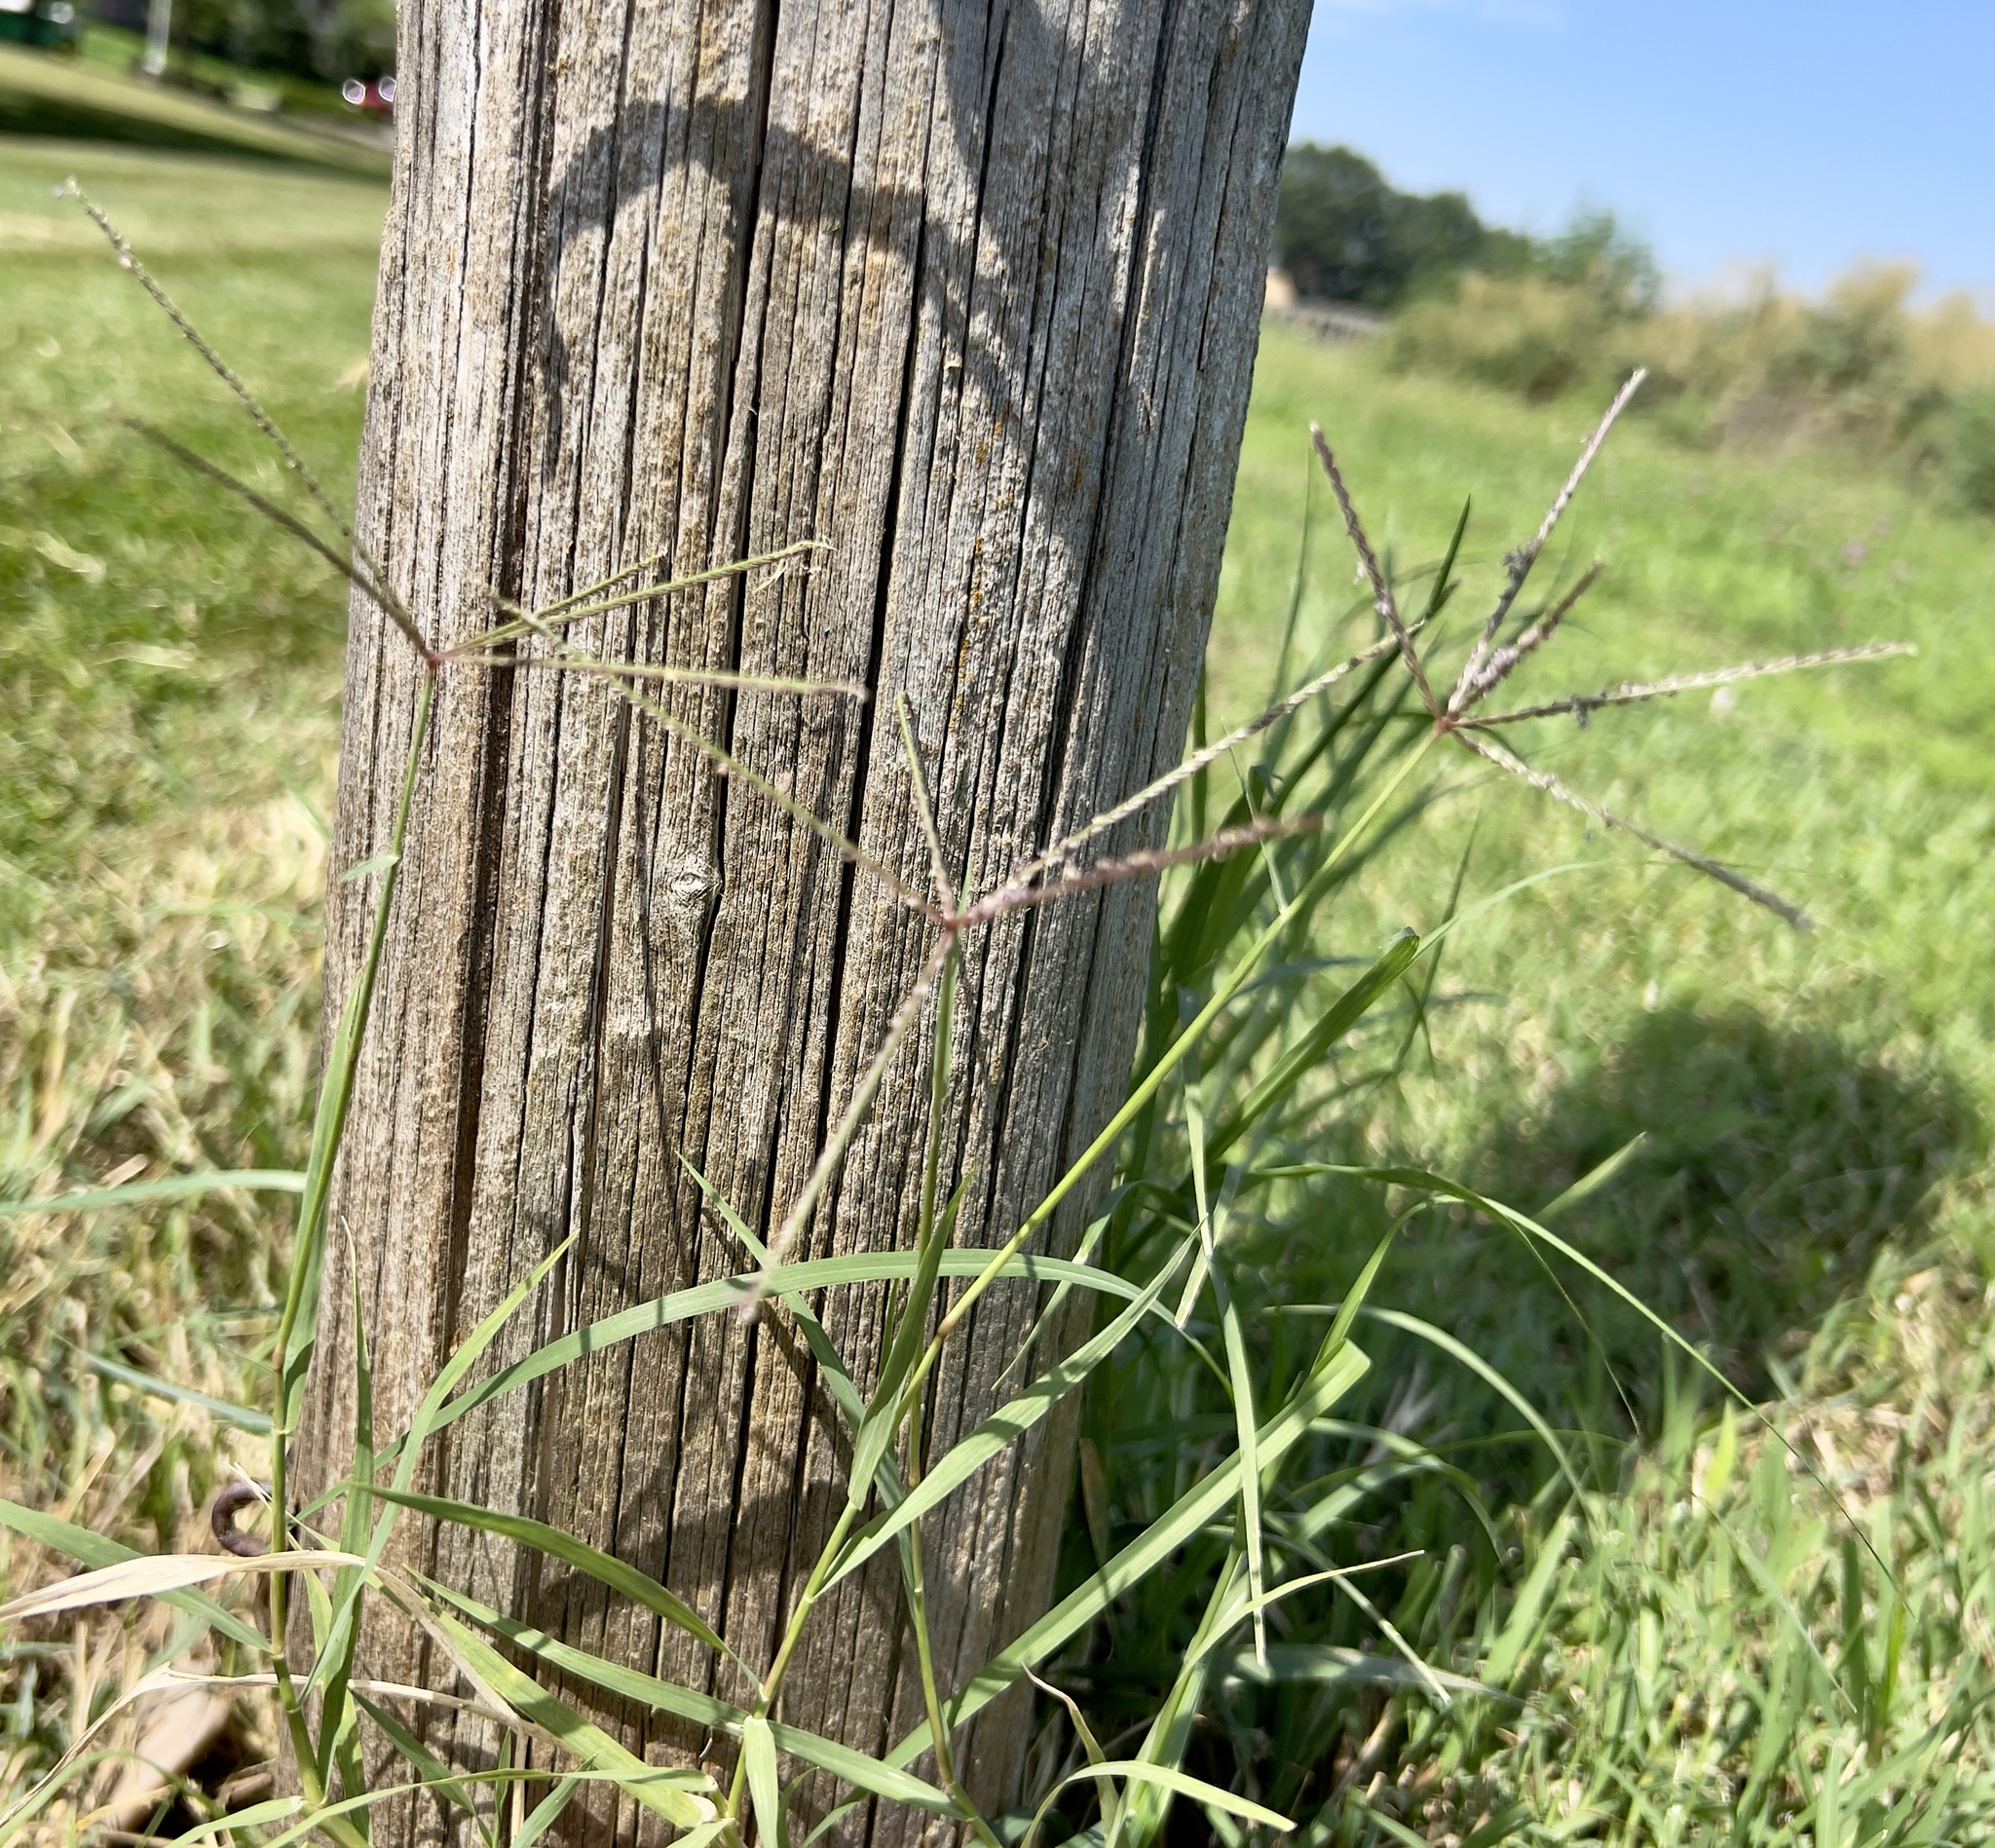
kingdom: Plantae
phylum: Tracheophyta
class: Liliopsida
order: Poales
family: Poaceae
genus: Cynodon
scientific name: Cynodon dactylon
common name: Bermuda grass
